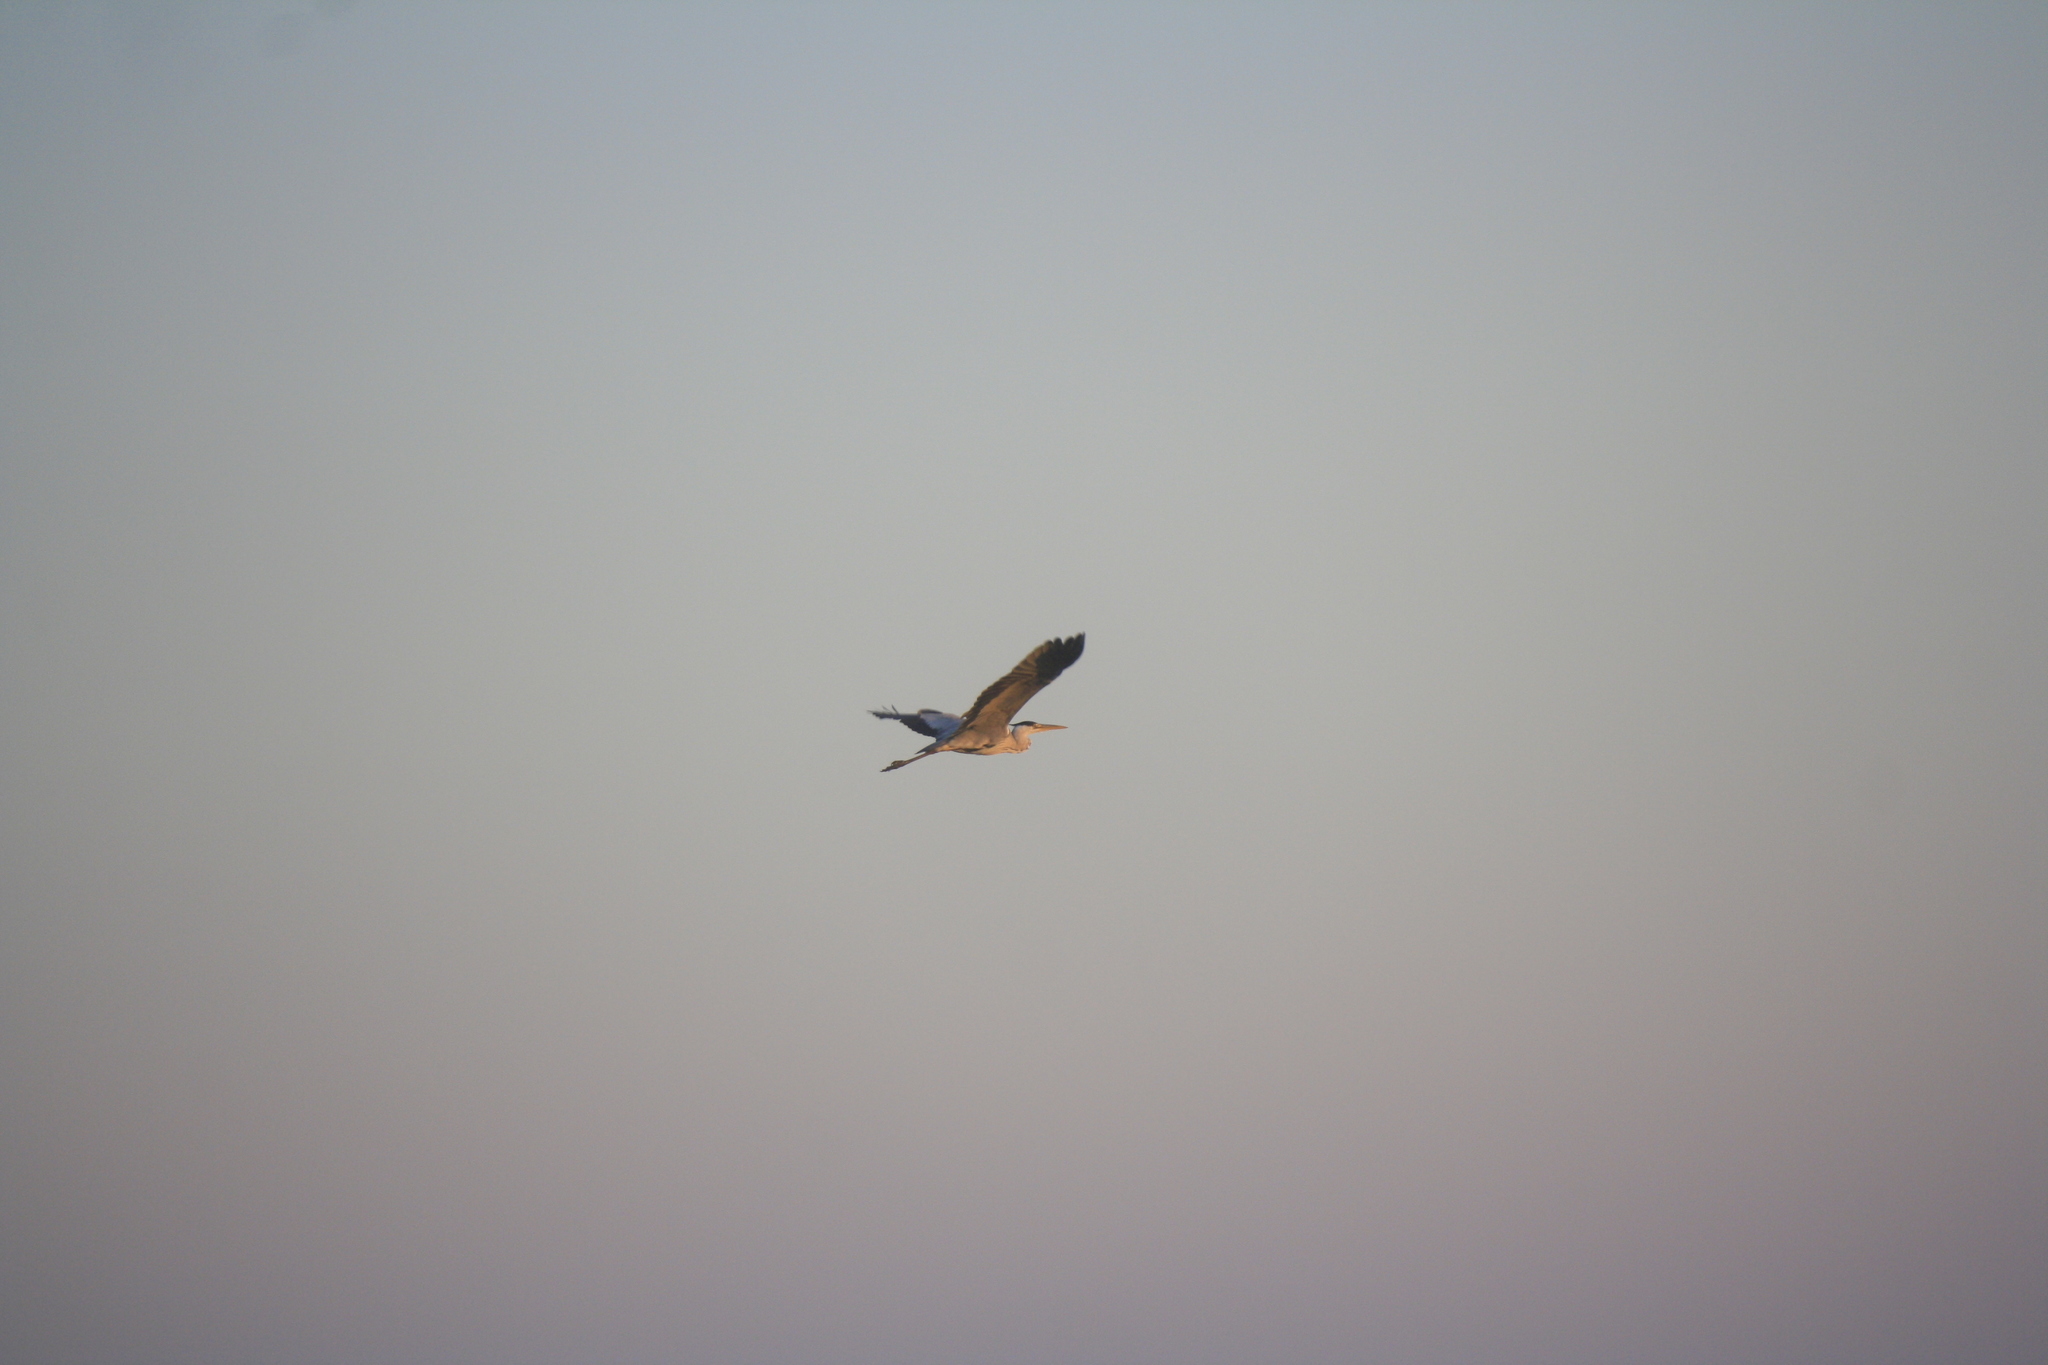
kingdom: Animalia
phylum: Chordata
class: Aves
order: Pelecaniformes
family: Ardeidae
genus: Ardea
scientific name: Ardea cinerea
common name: Grey heron
